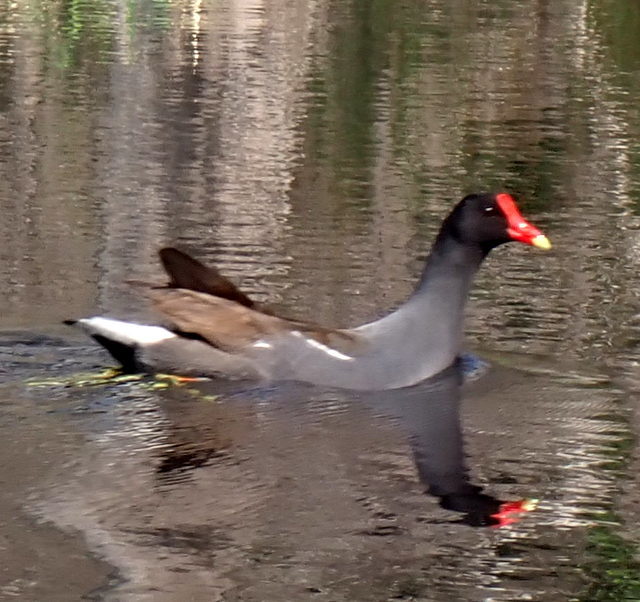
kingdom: Animalia
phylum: Chordata
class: Aves
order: Gruiformes
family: Rallidae
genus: Gallinula
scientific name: Gallinula chloropus
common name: Common moorhen
